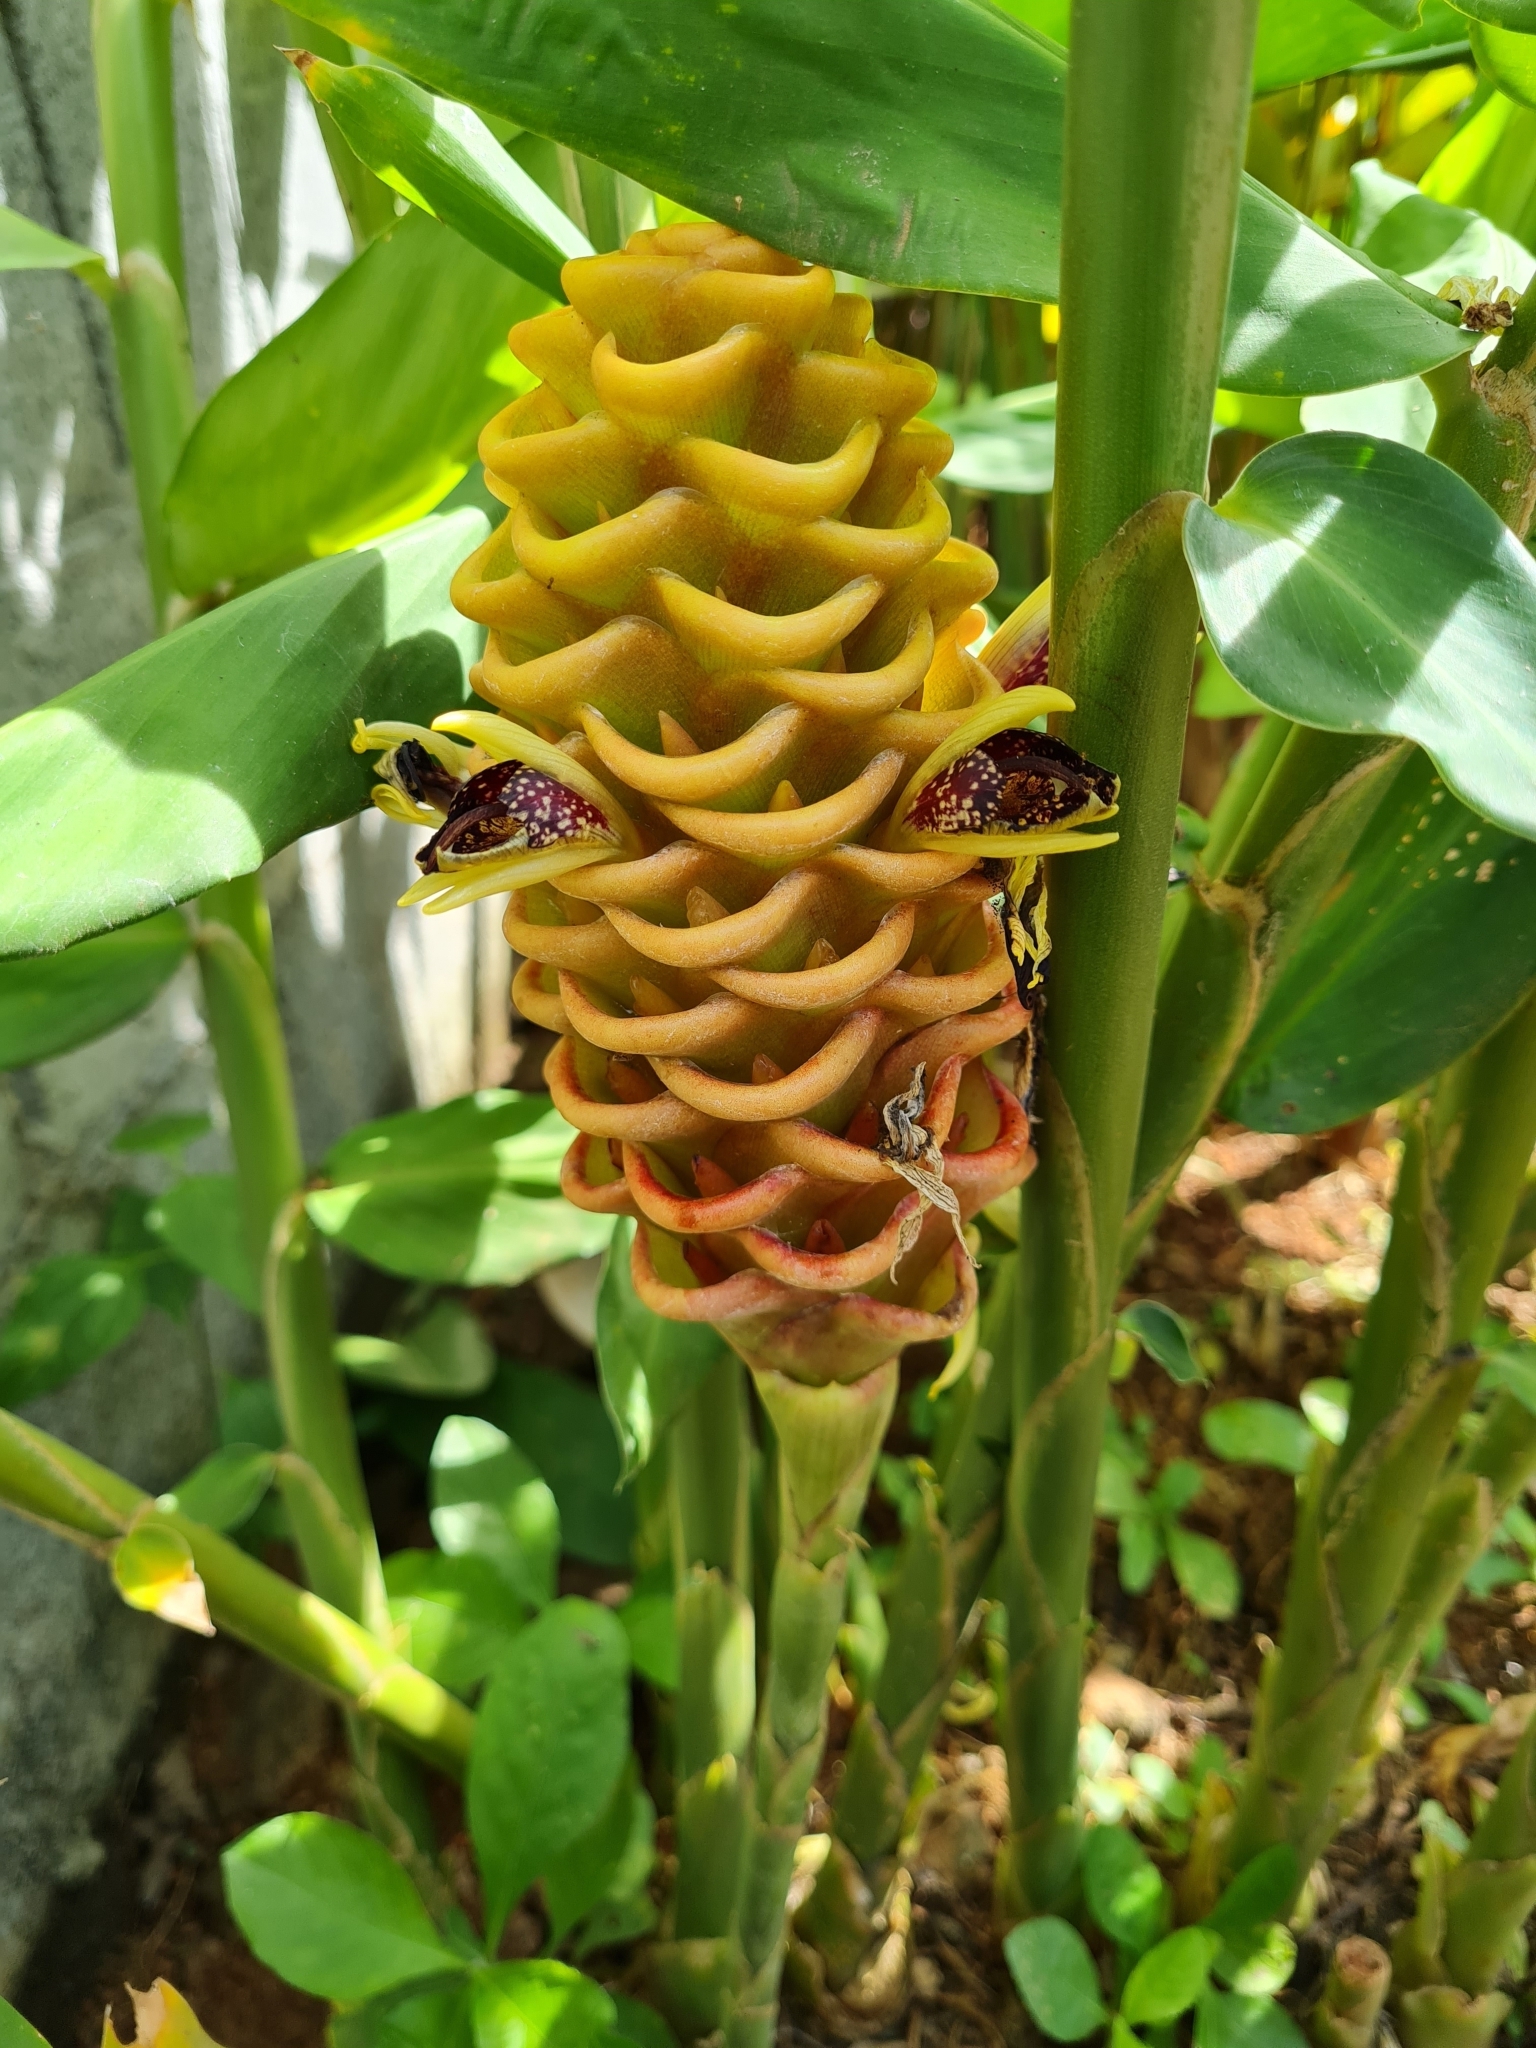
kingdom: Plantae
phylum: Tracheophyta
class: Liliopsida
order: Zingiberales
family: Zingiberaceae
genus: Zingiber
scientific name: Zingiber spectabile
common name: Beehive ginger
